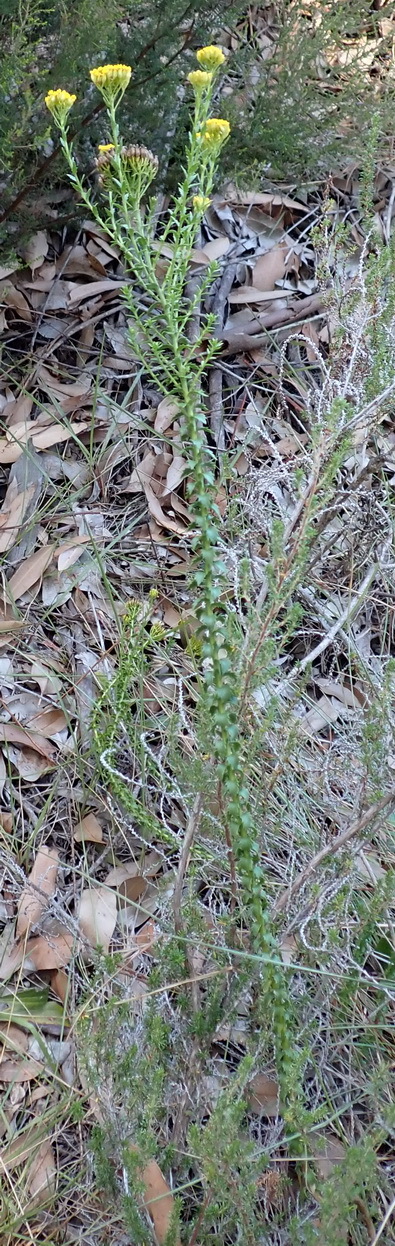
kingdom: Plantae
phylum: Tracheophyta
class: Magnoliopsida
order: Asterales
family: Asteraceae
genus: Athanasia
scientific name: Athanasia dentata
